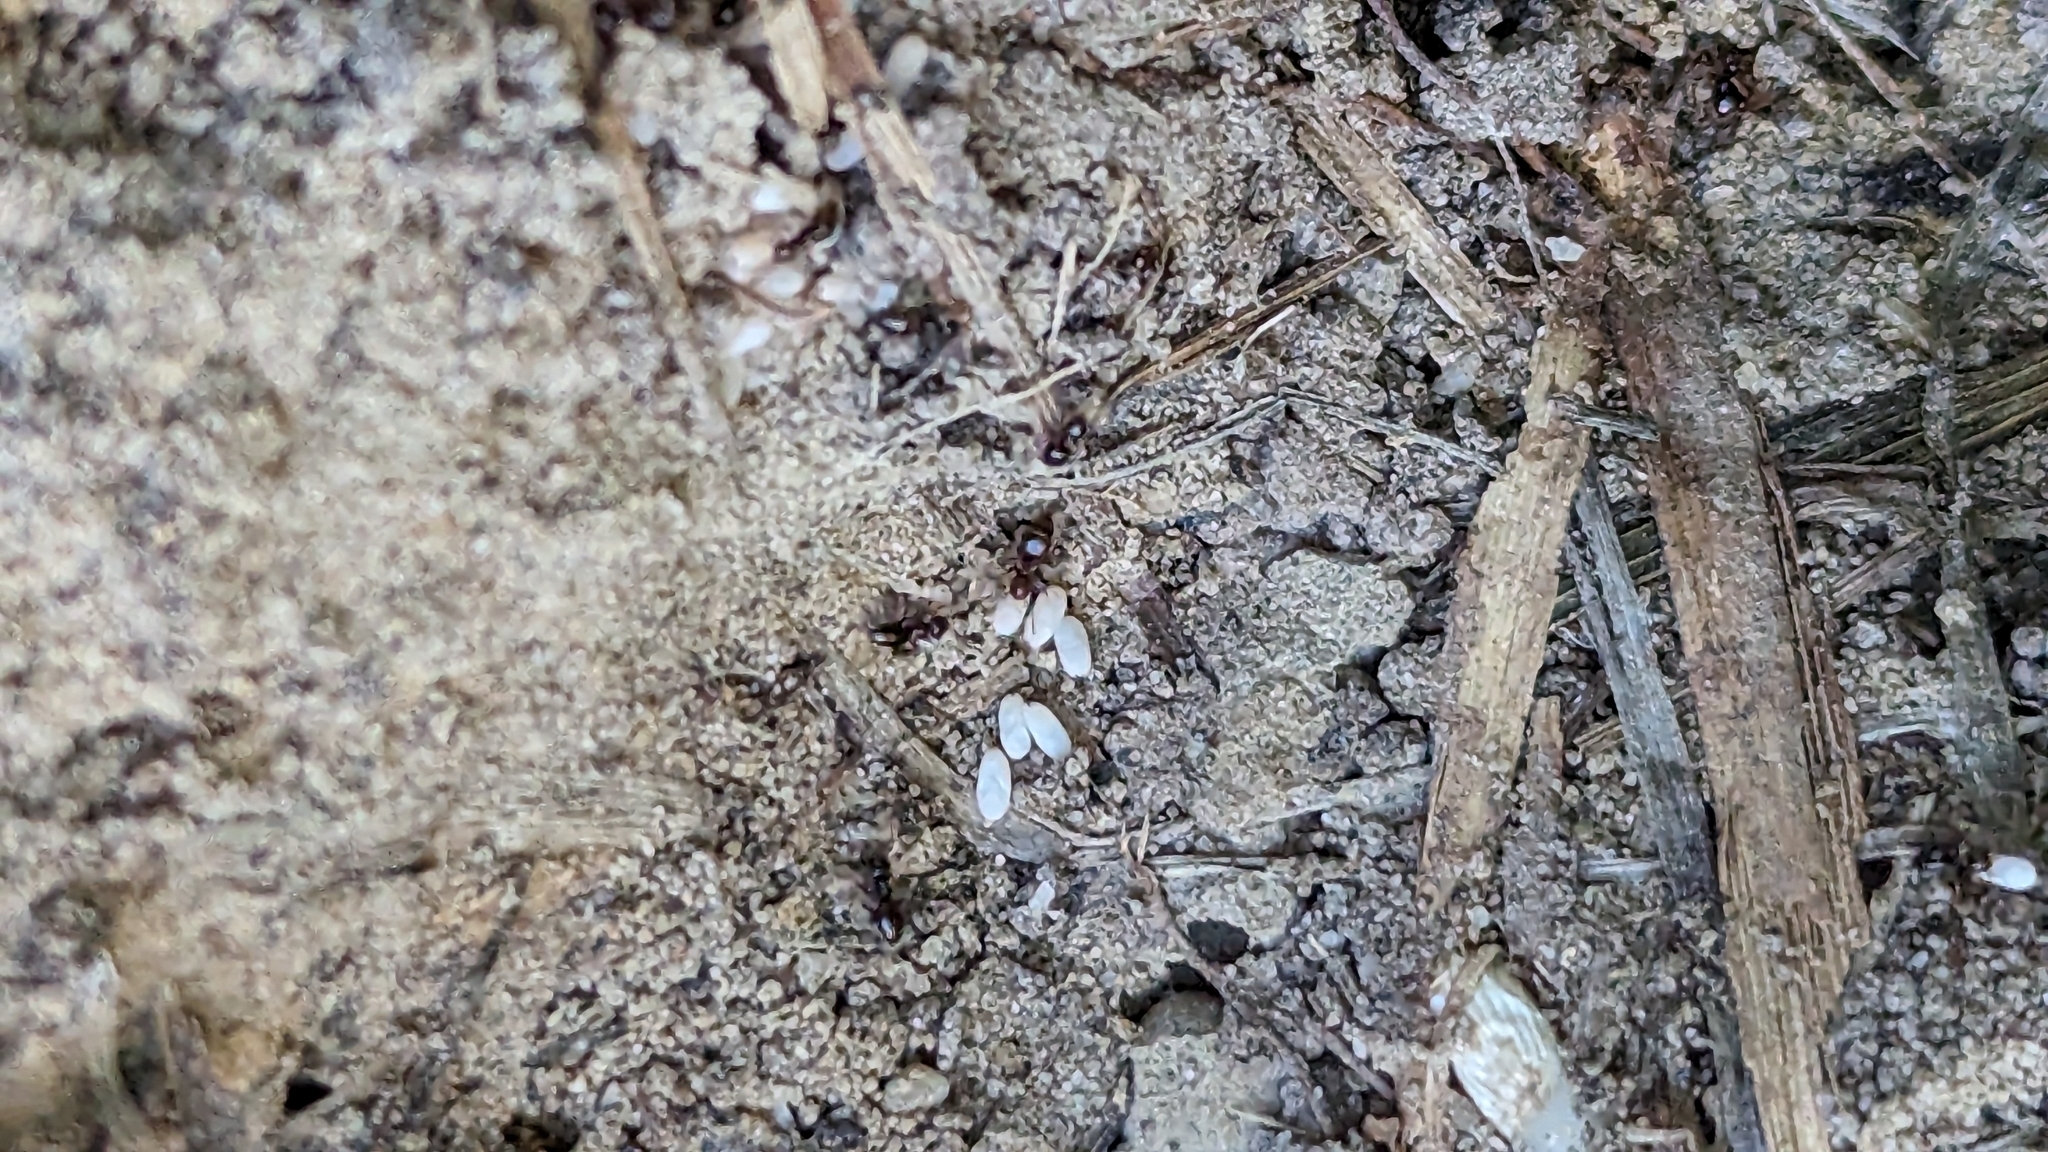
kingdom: Animalia
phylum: Arthropoda
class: Insecta
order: Hymenoptera
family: Formicidae
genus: Brachymyrmex
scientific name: Brachymyrmex patagonicus
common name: Dark rover ant
